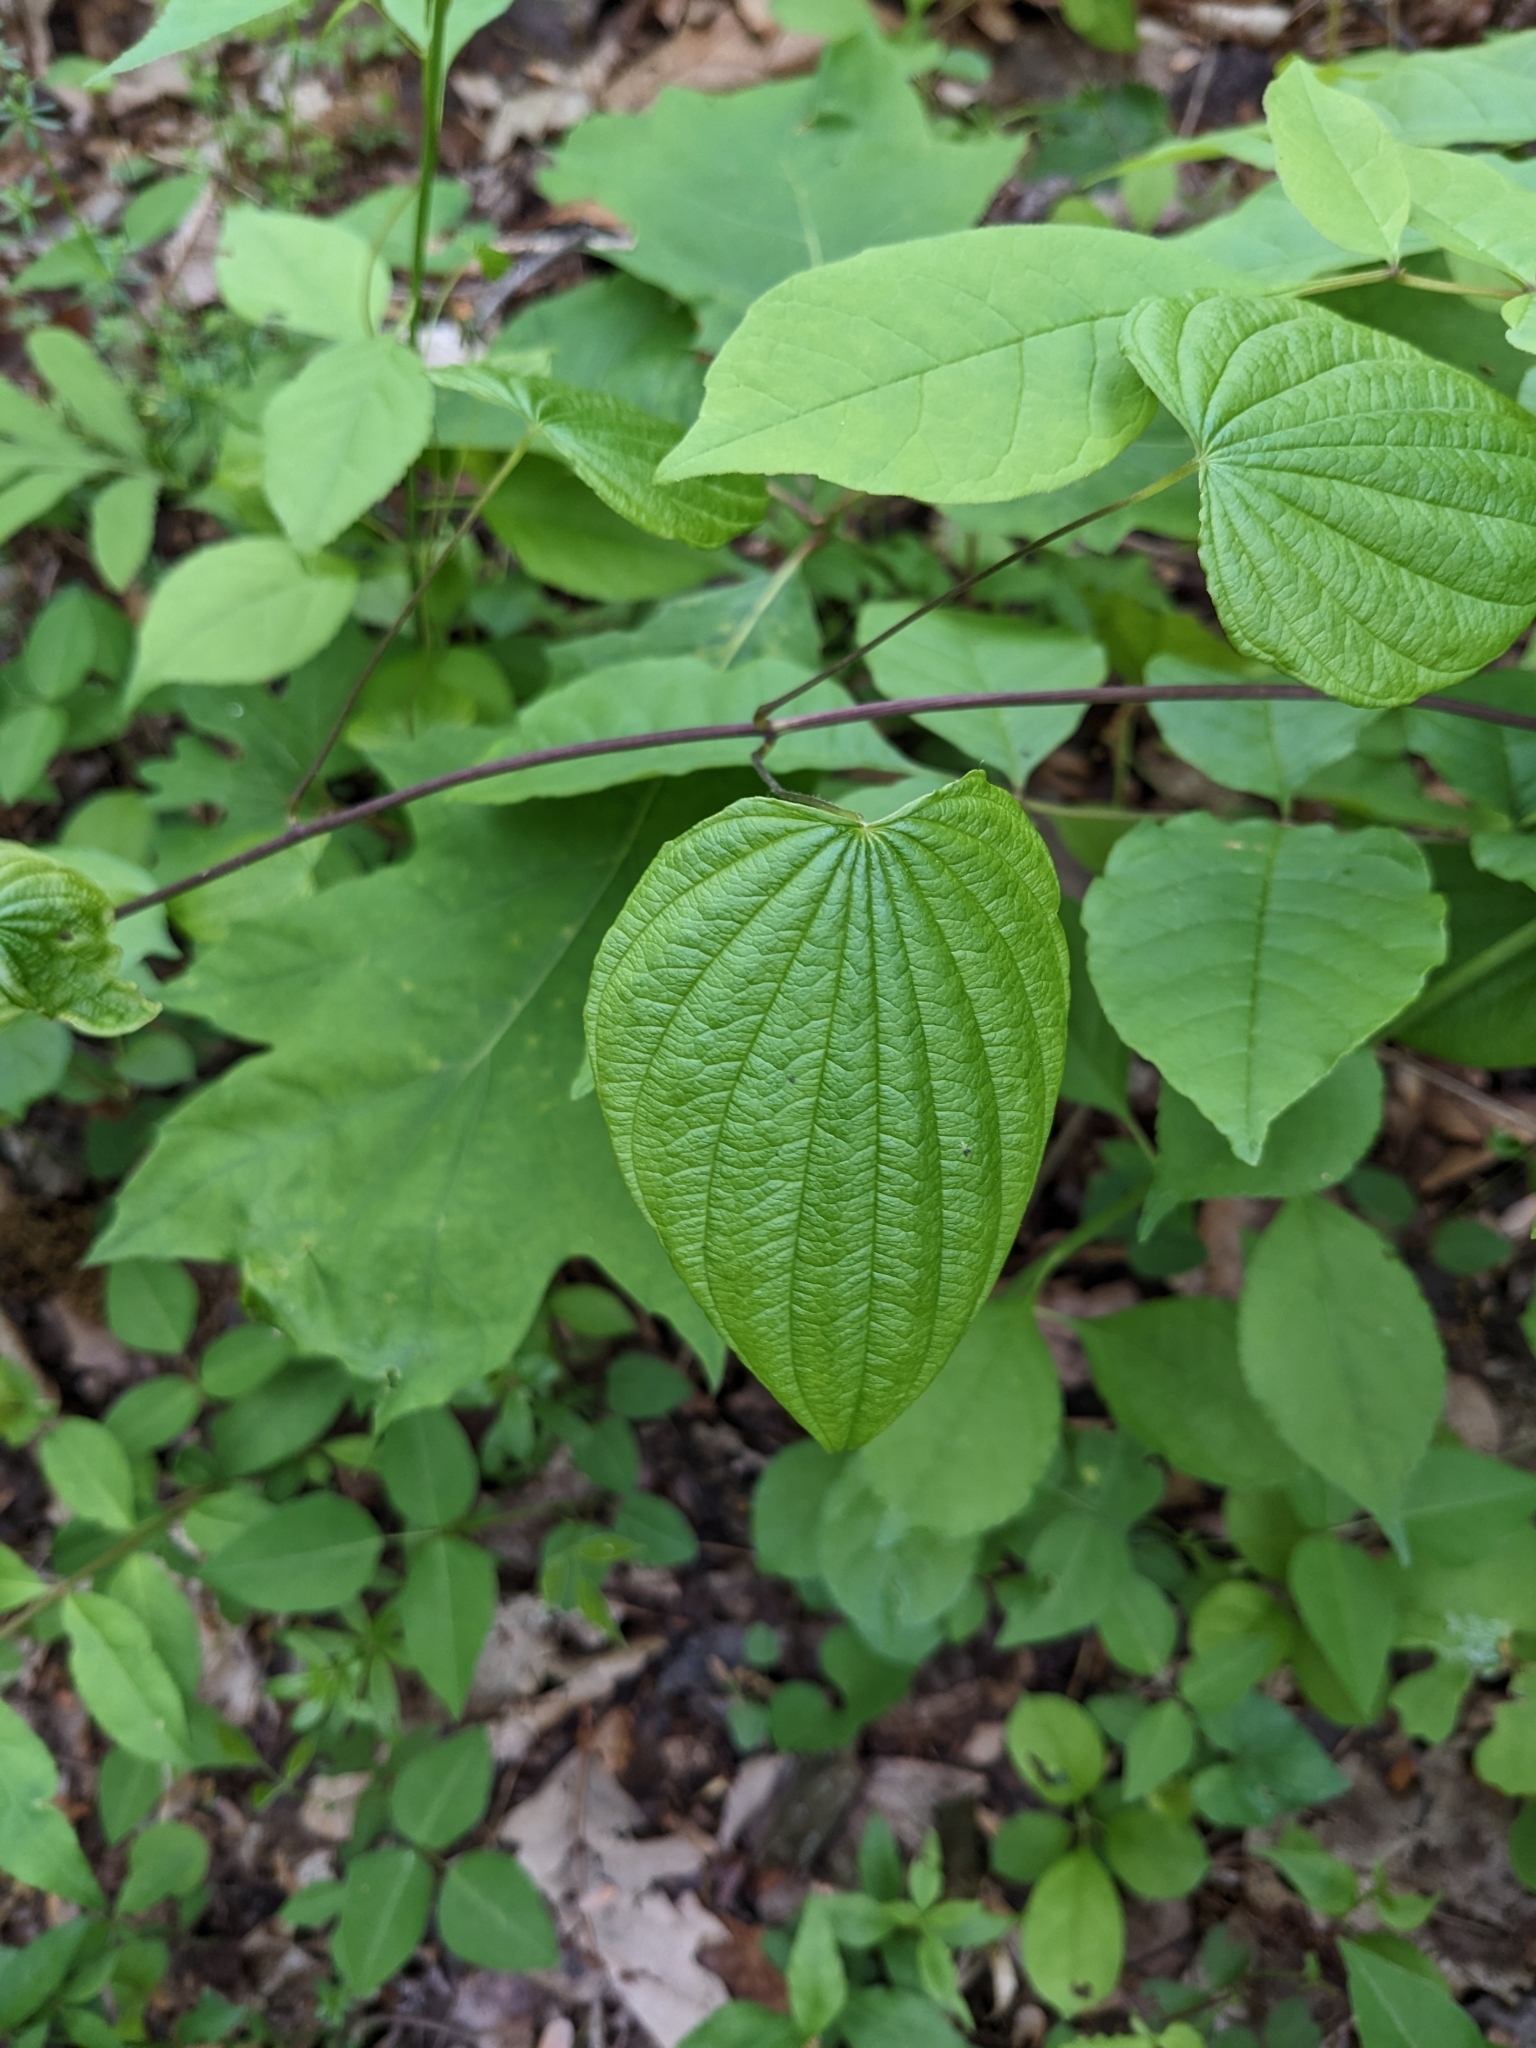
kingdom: Plantae
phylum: Tracheophyta
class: Liliopsida
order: Dioscoreales
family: Dioscoreaceae
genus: Dioscorea
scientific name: Dioscorea villosa
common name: Wild yam
